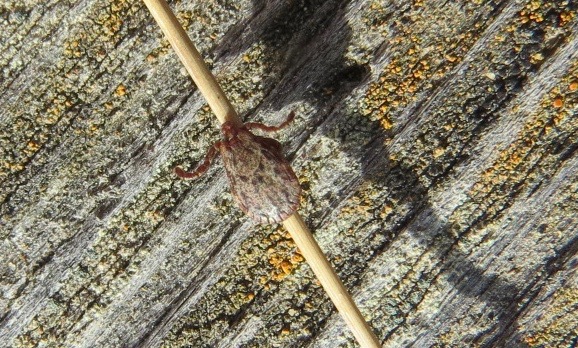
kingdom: Animalia
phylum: Arthropoda
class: Arachnida
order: Ixodida
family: Ixodidae
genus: Dermacentor
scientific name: Dermacentor occidentalis
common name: Net tick
